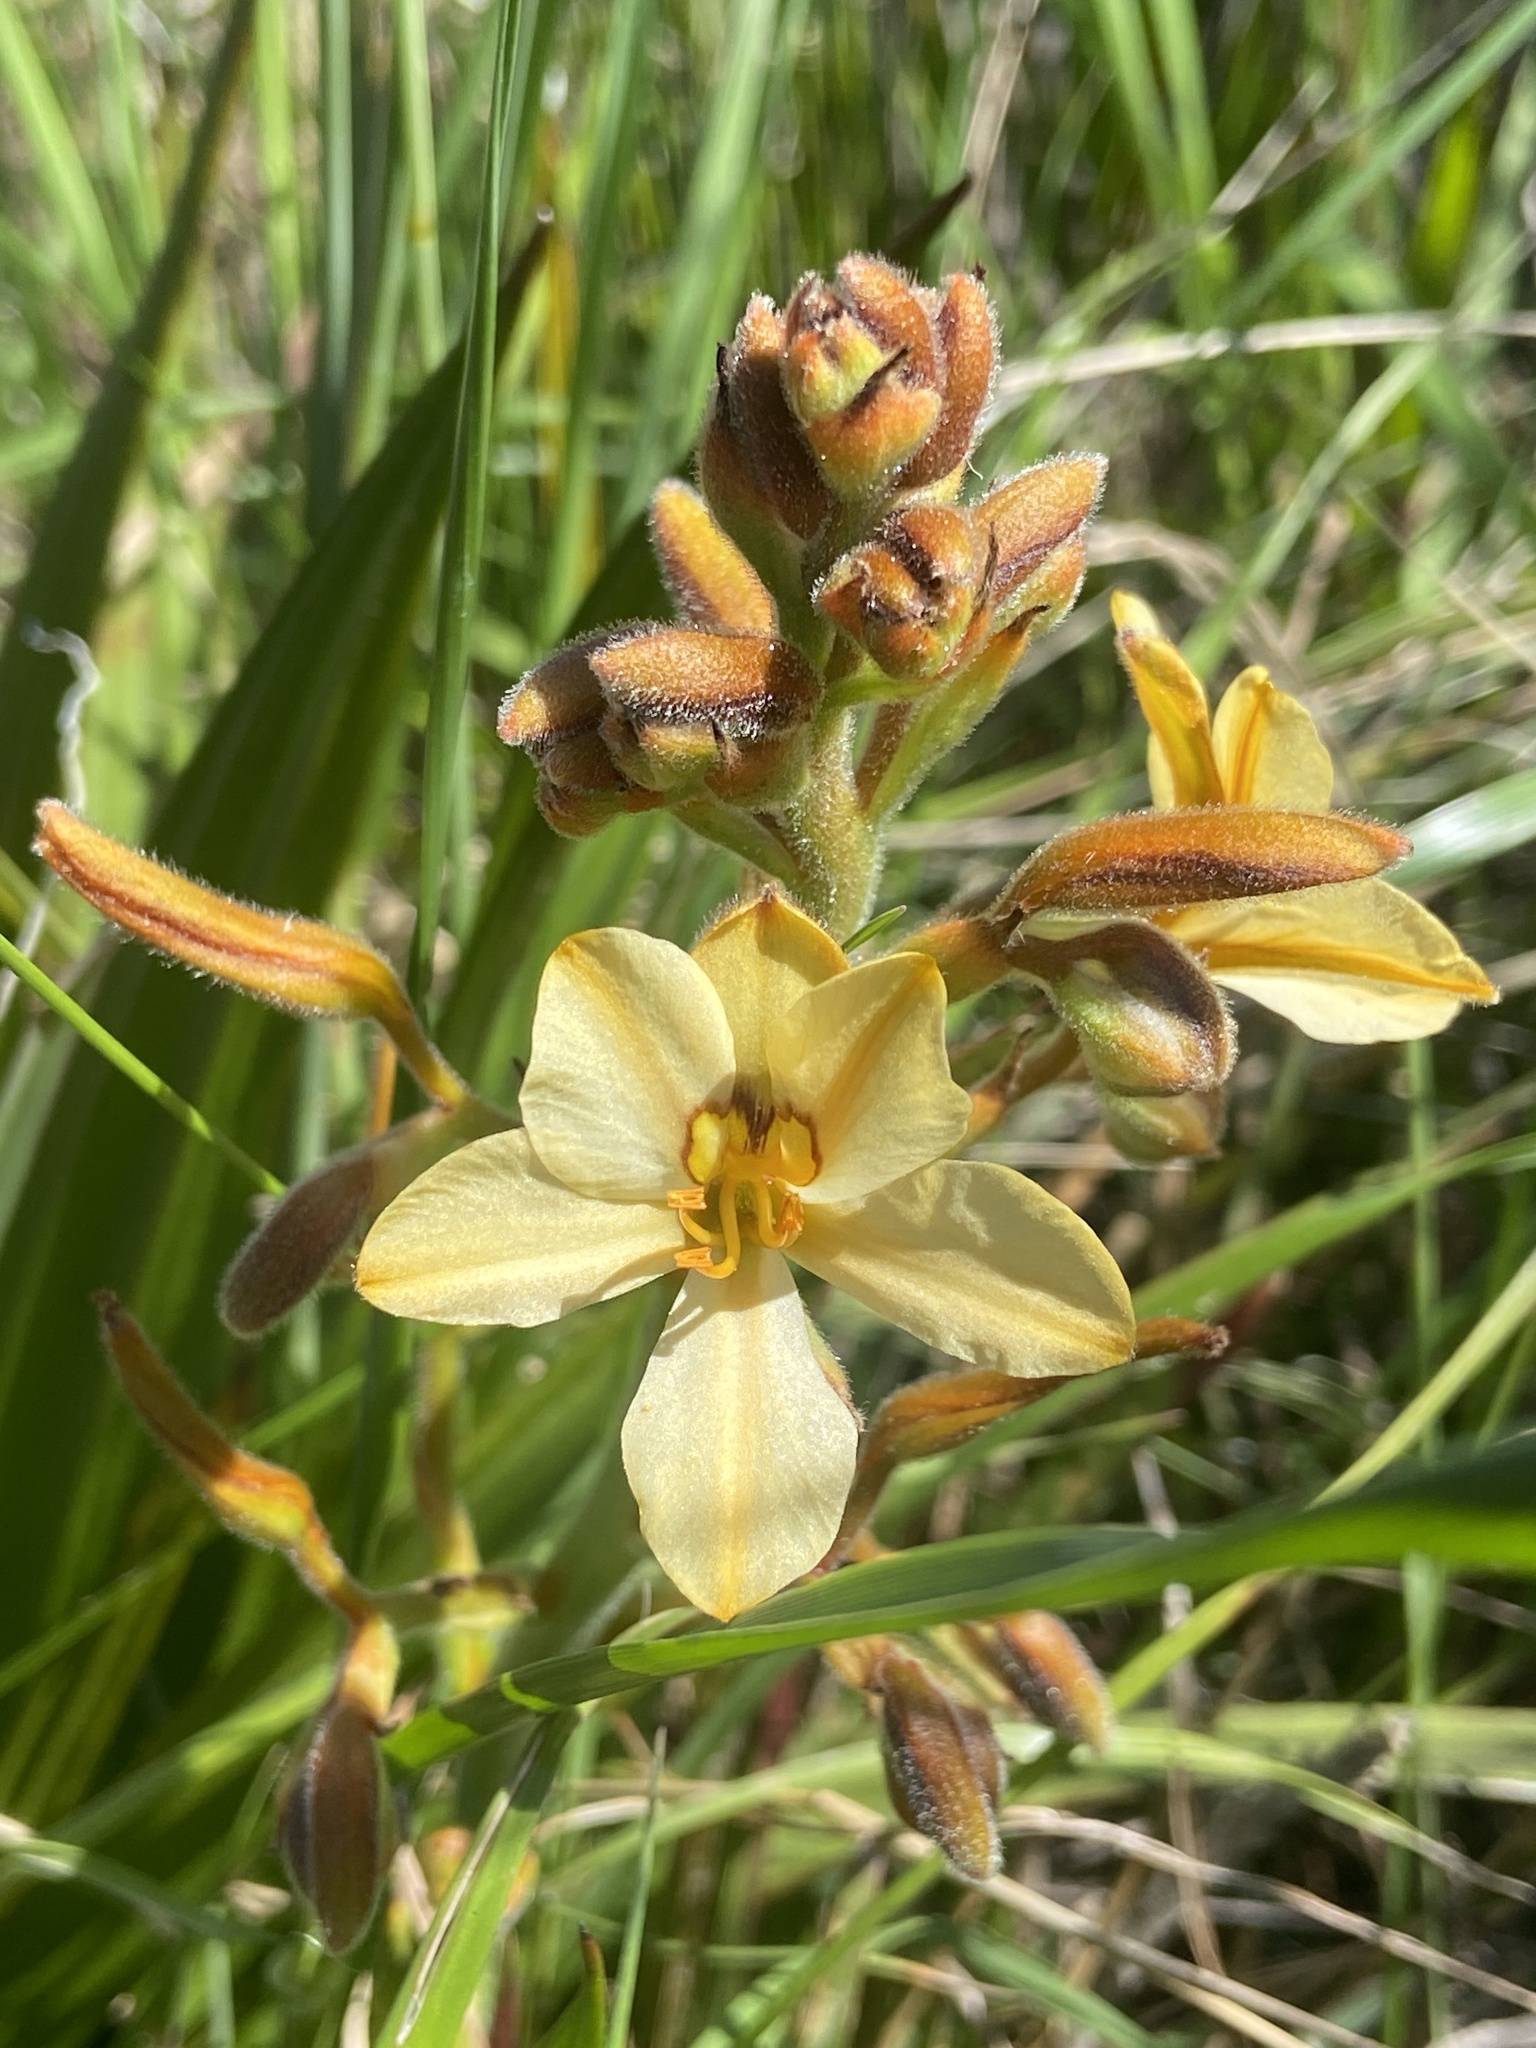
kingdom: Plantae
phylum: Tracheophyta
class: Liliopsida
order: Commelinales
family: Haemodoraceae
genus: Wachendorfia
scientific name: Wachendorfia paniculata
